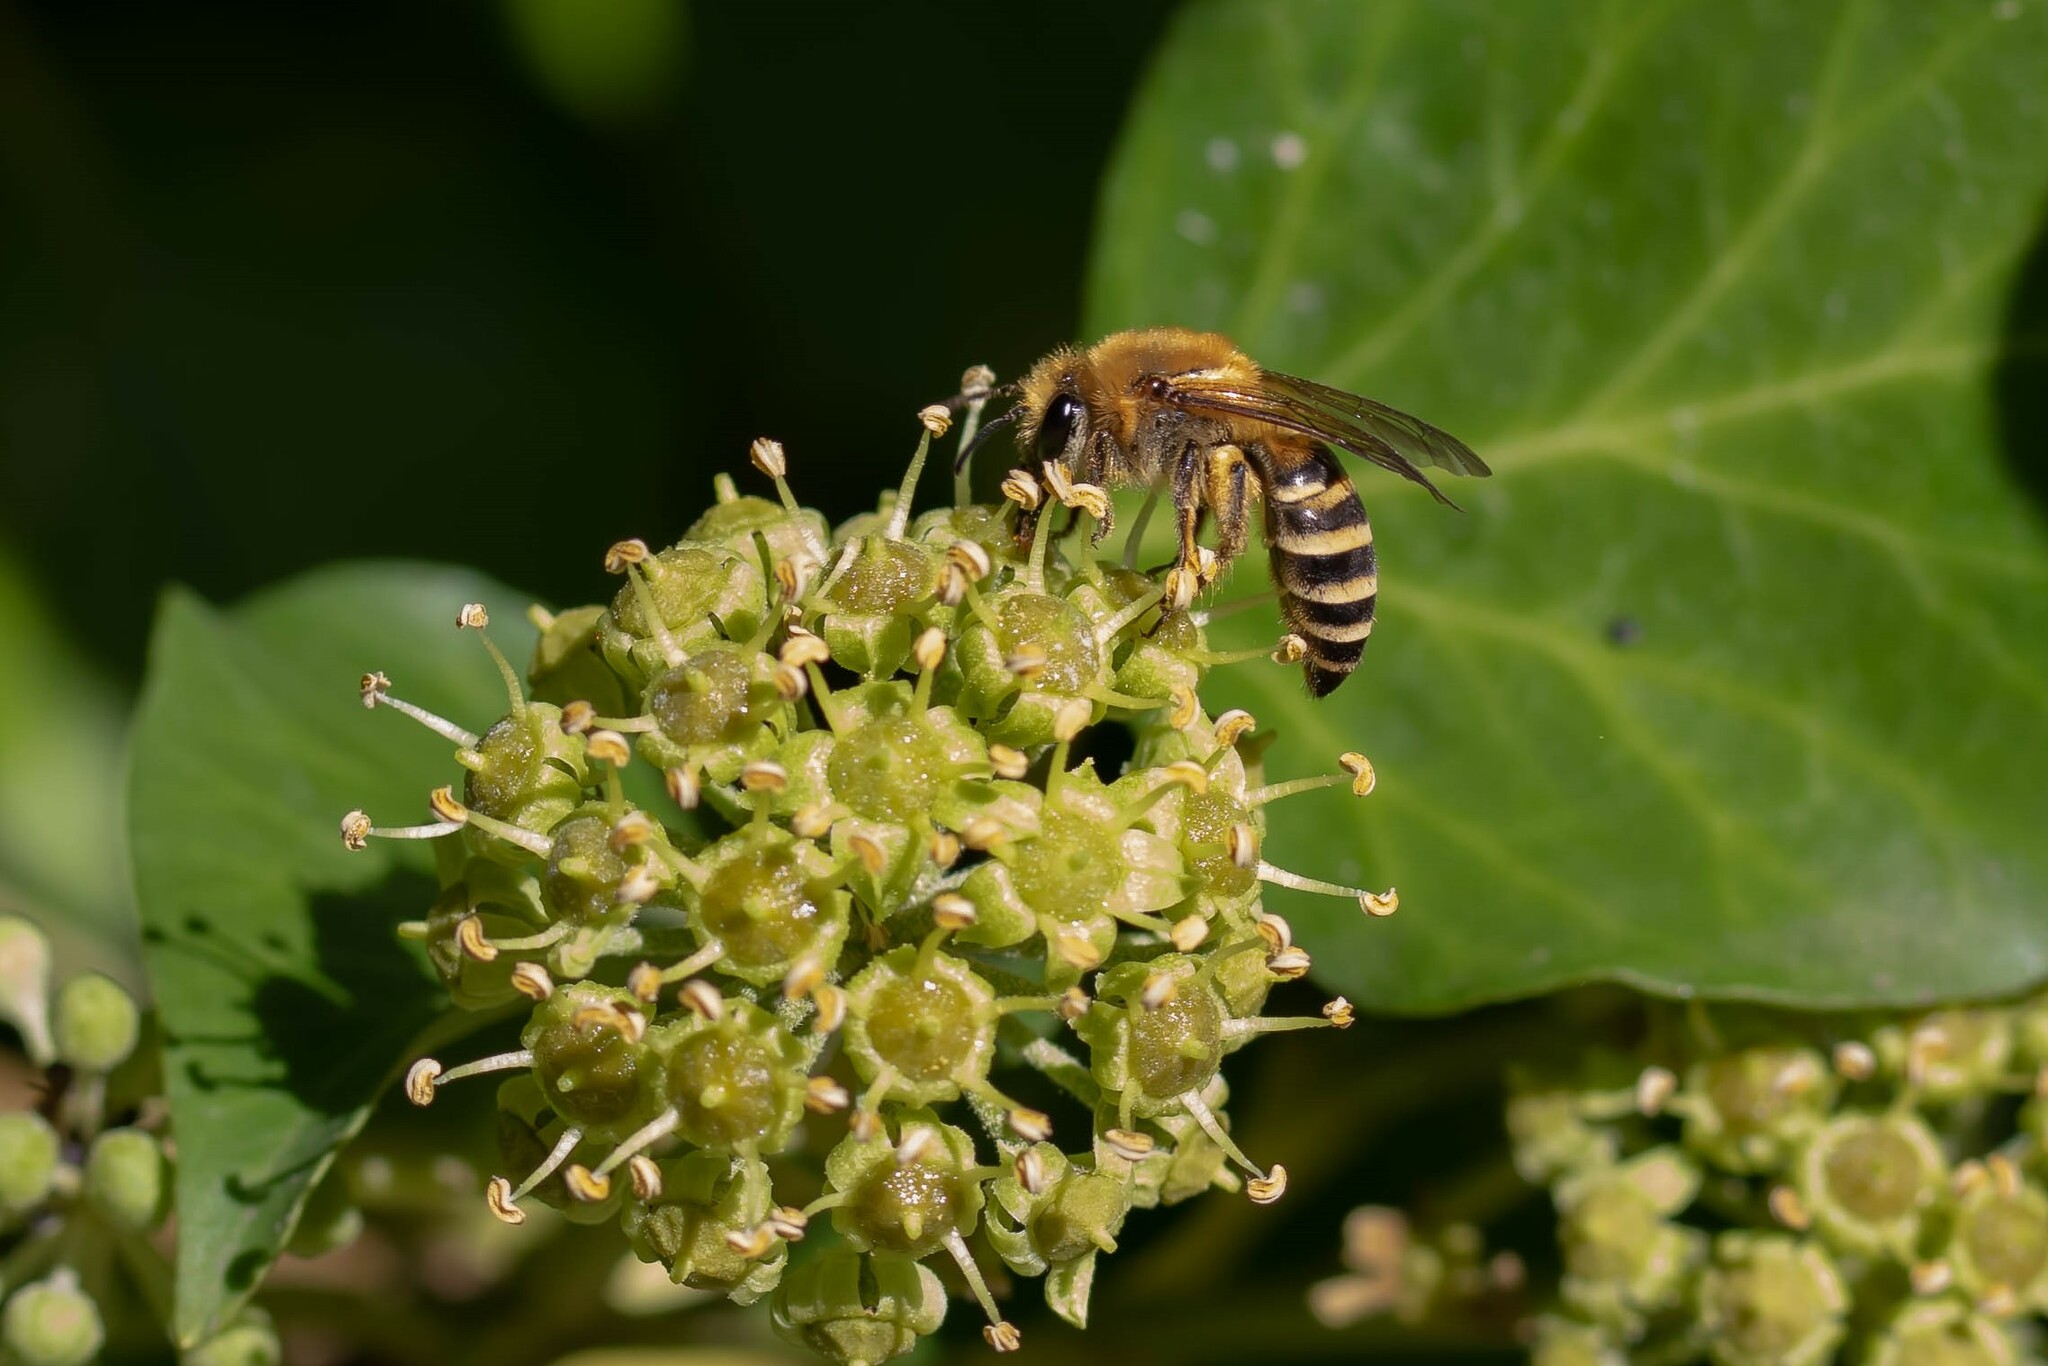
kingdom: Animalia
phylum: Arthropoda
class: Insecta
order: Hymenoptera
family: Colletidae
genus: Colletes
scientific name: Colletes hederae
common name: Ivy bee
